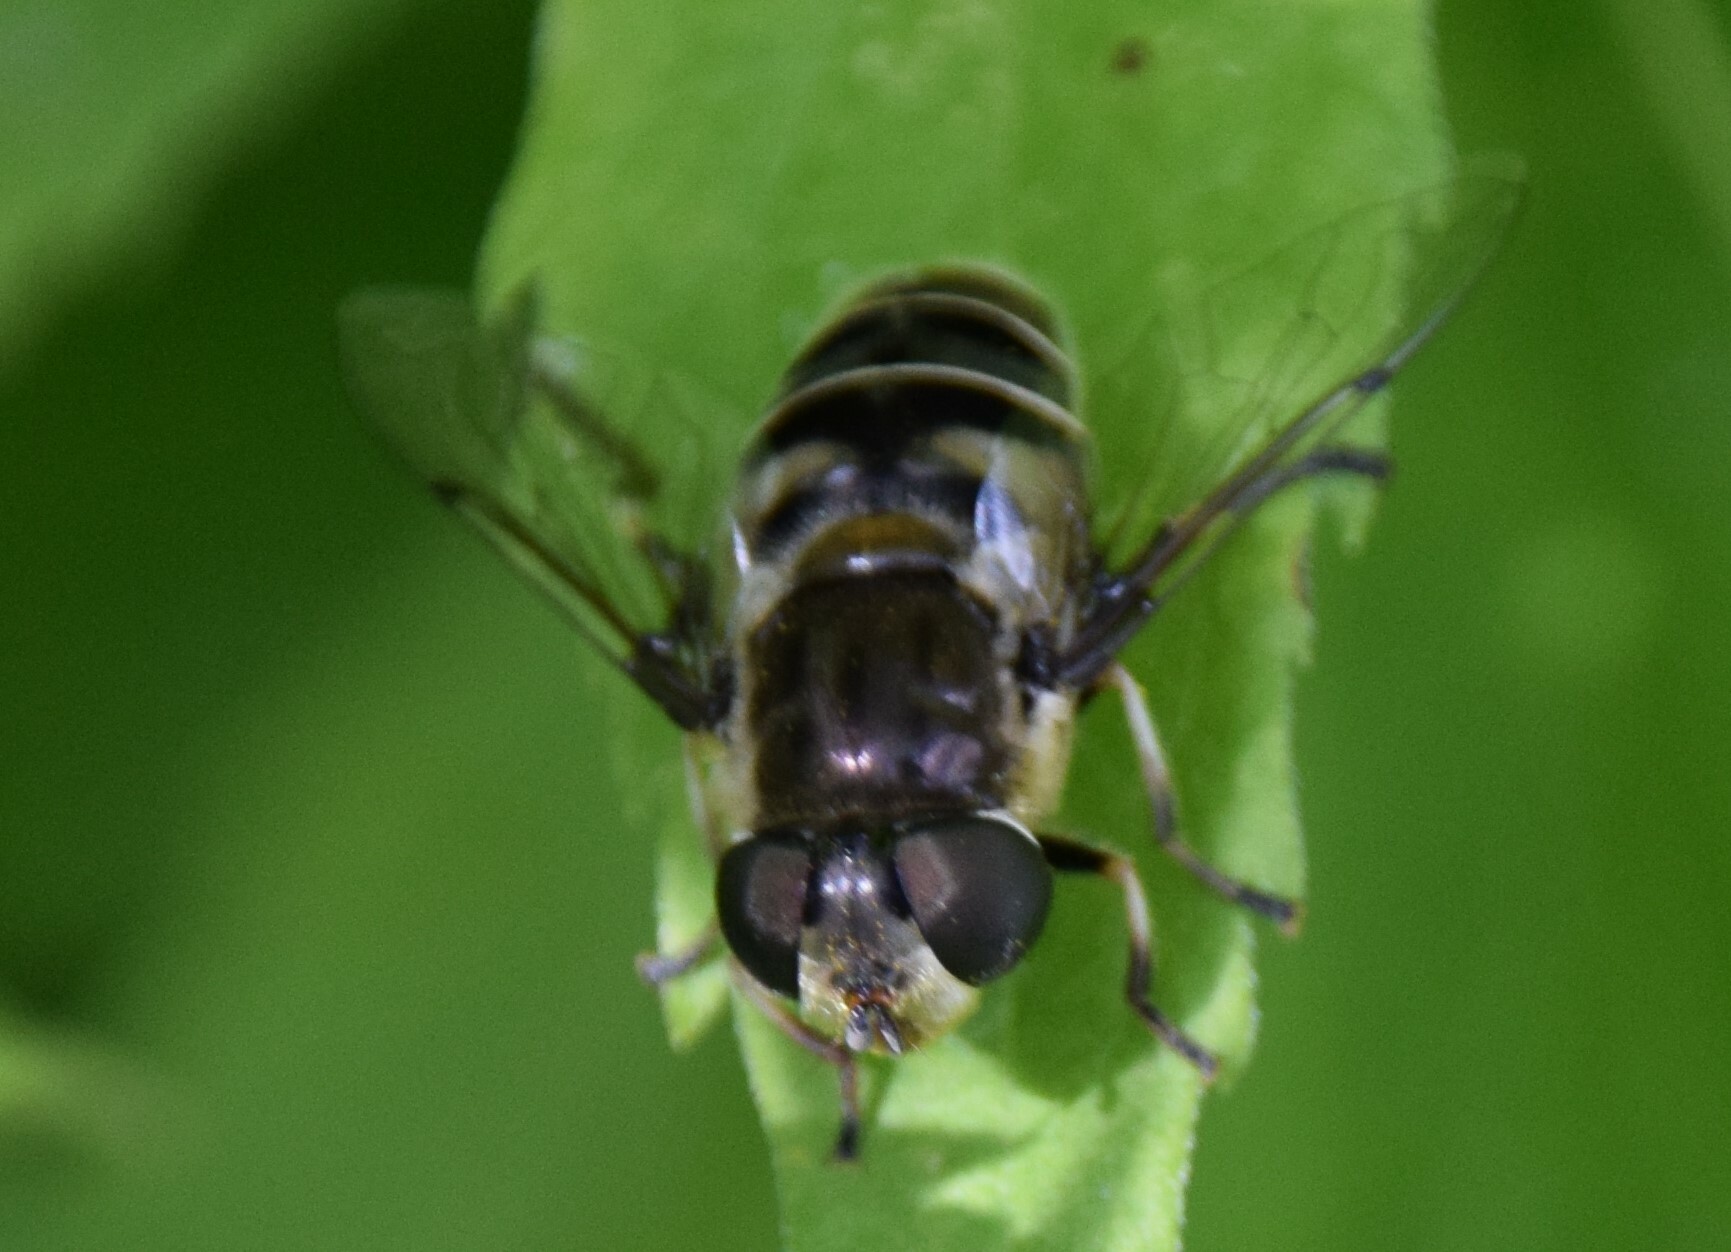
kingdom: Animalia
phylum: Arthropoda
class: Insecta
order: Diptera
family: Syrphidae
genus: Eristalis
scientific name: Eristalis dimidiata
